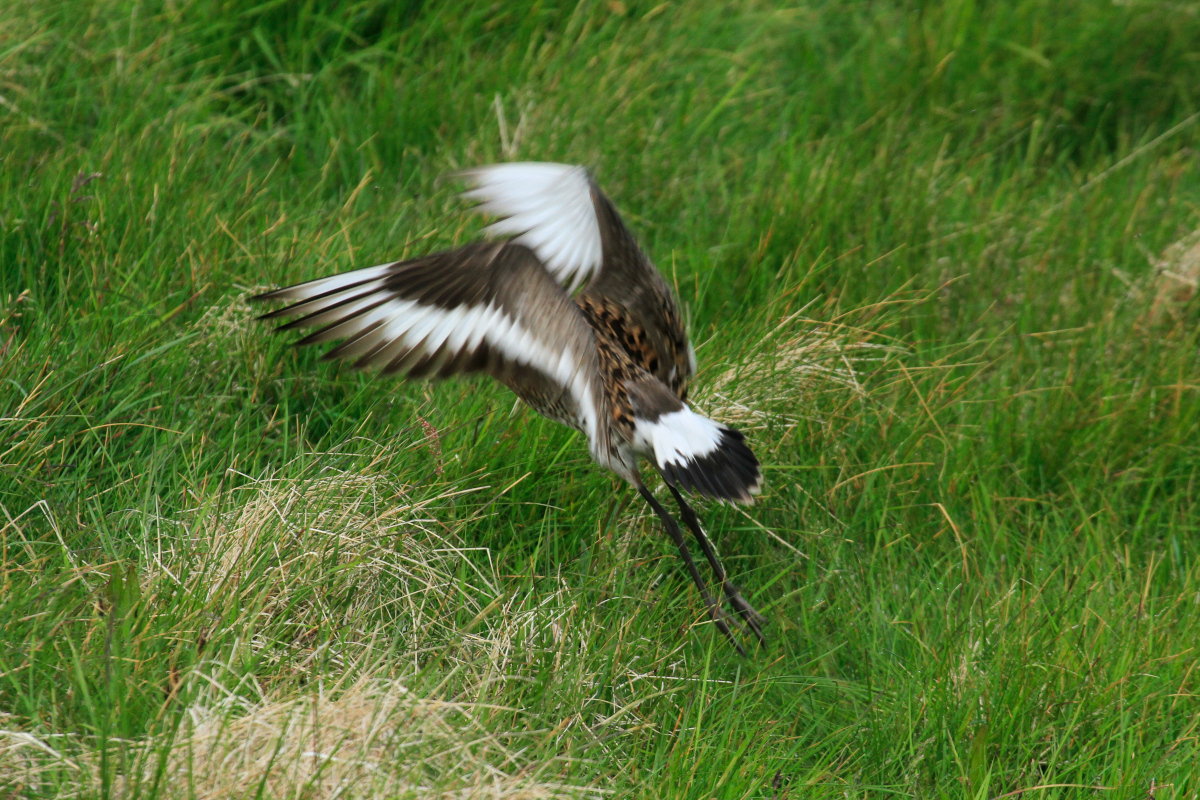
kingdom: Animalia
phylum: Chordata
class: Aves
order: Charadriiformes
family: Scolopacidae
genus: Limosa
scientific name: Limosa limosa
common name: Black-tailed godwit
